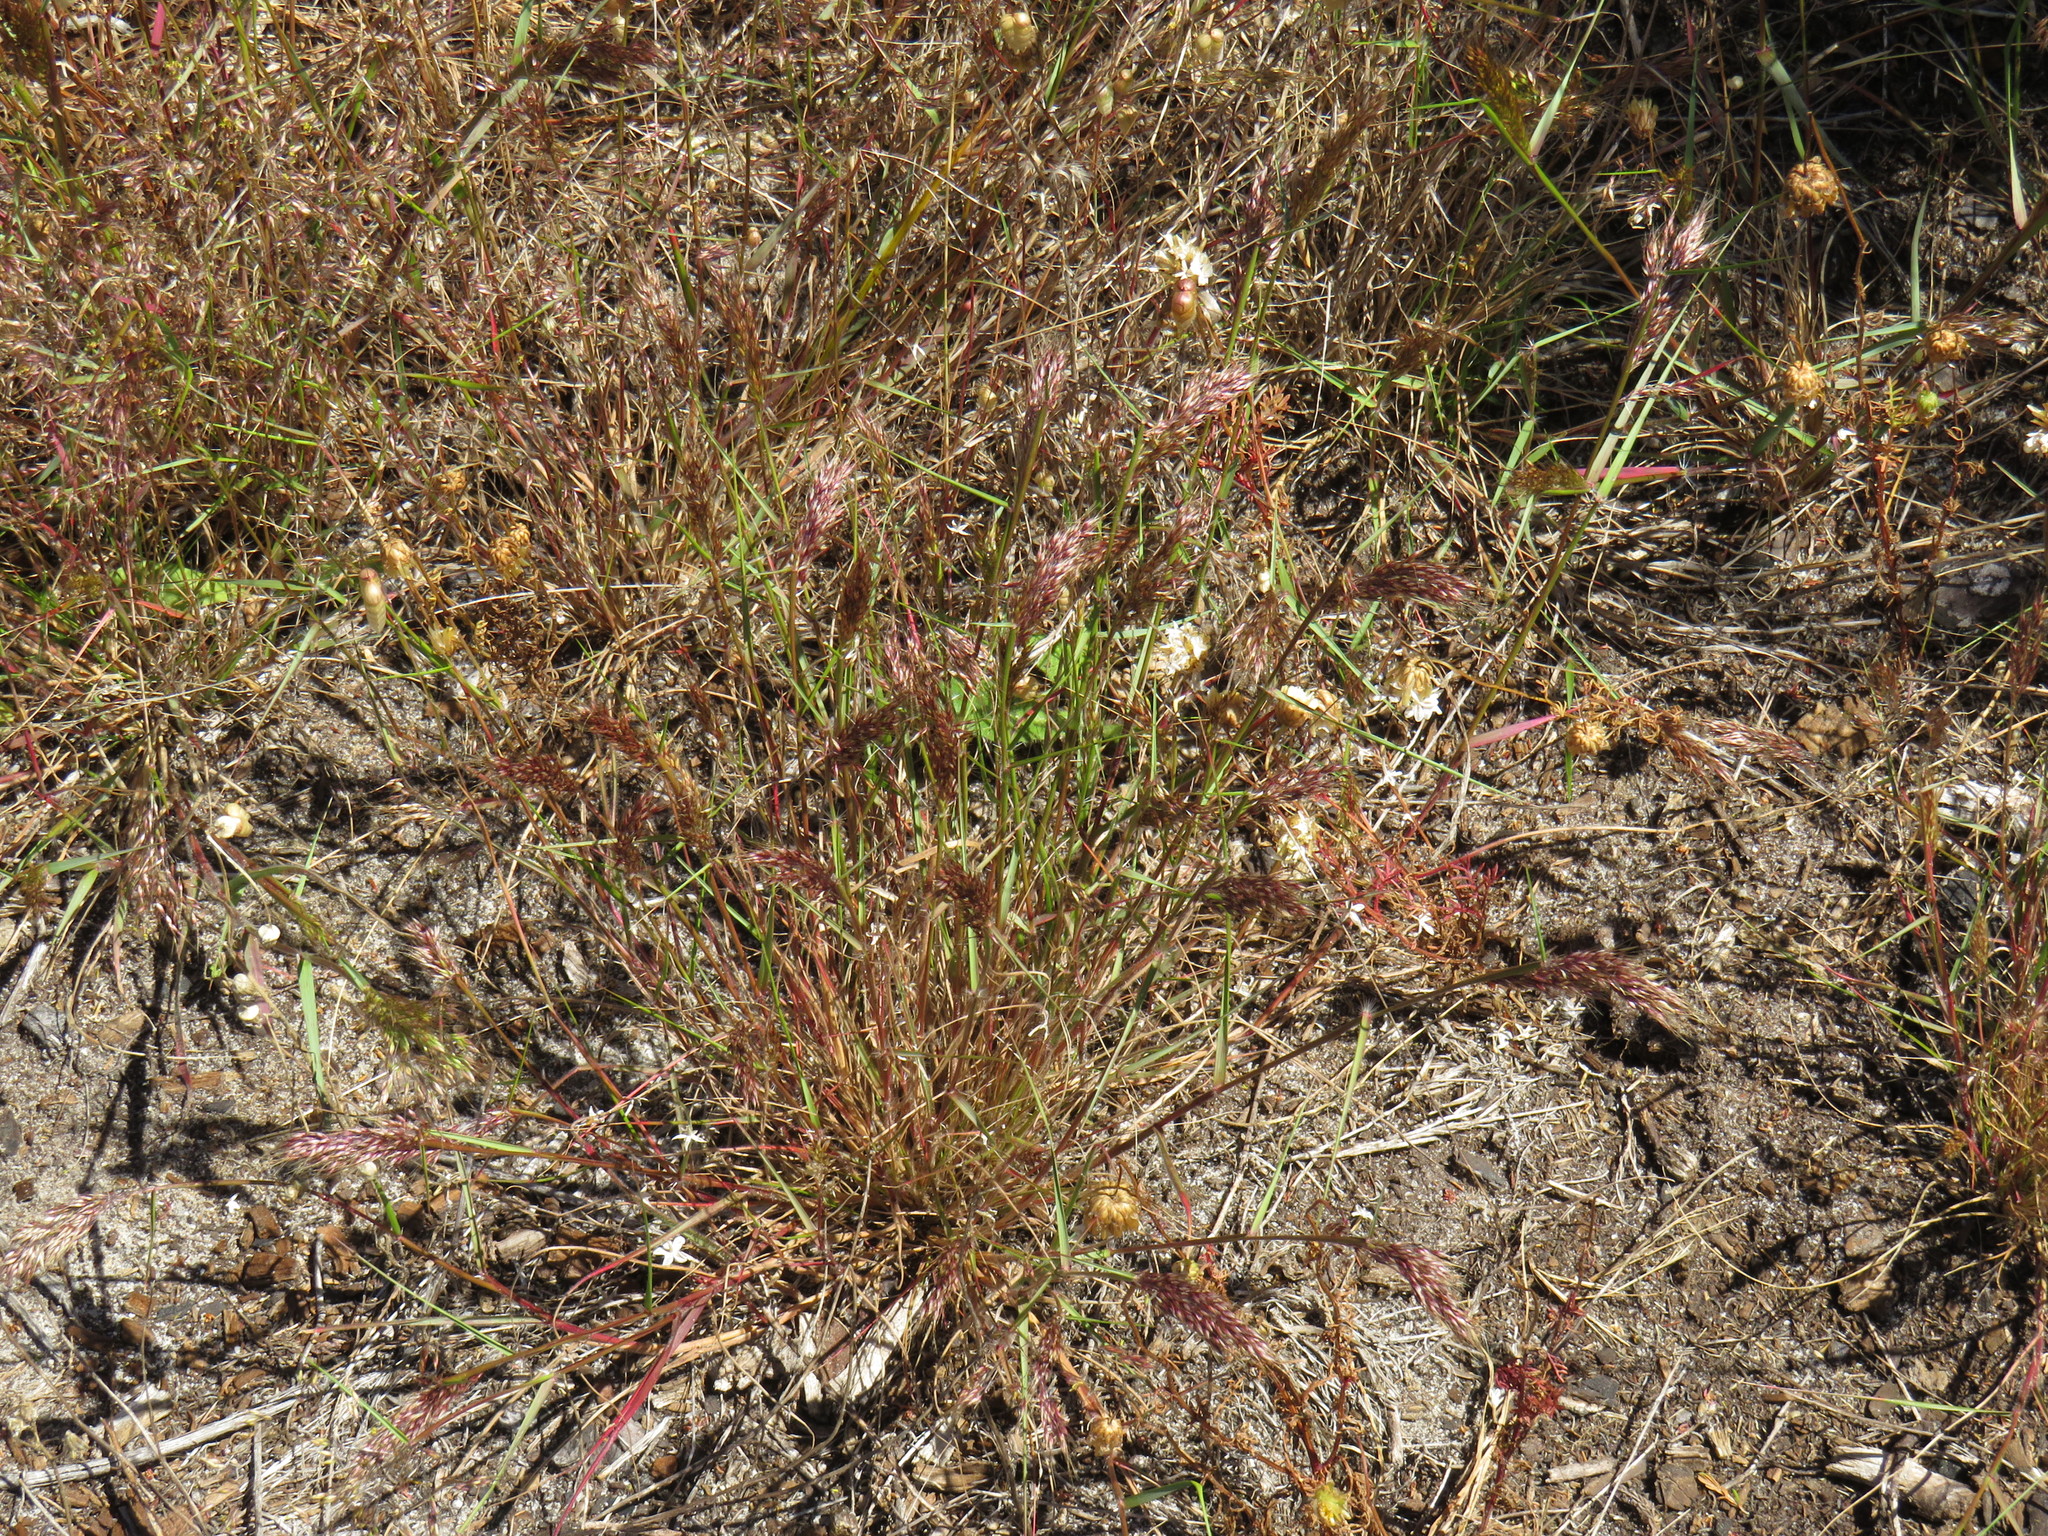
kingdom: Plantae
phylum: Tracheophyta
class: Liliopsida
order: Poales
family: Poaceae
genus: Pentameris
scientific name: Pentameris airoides
